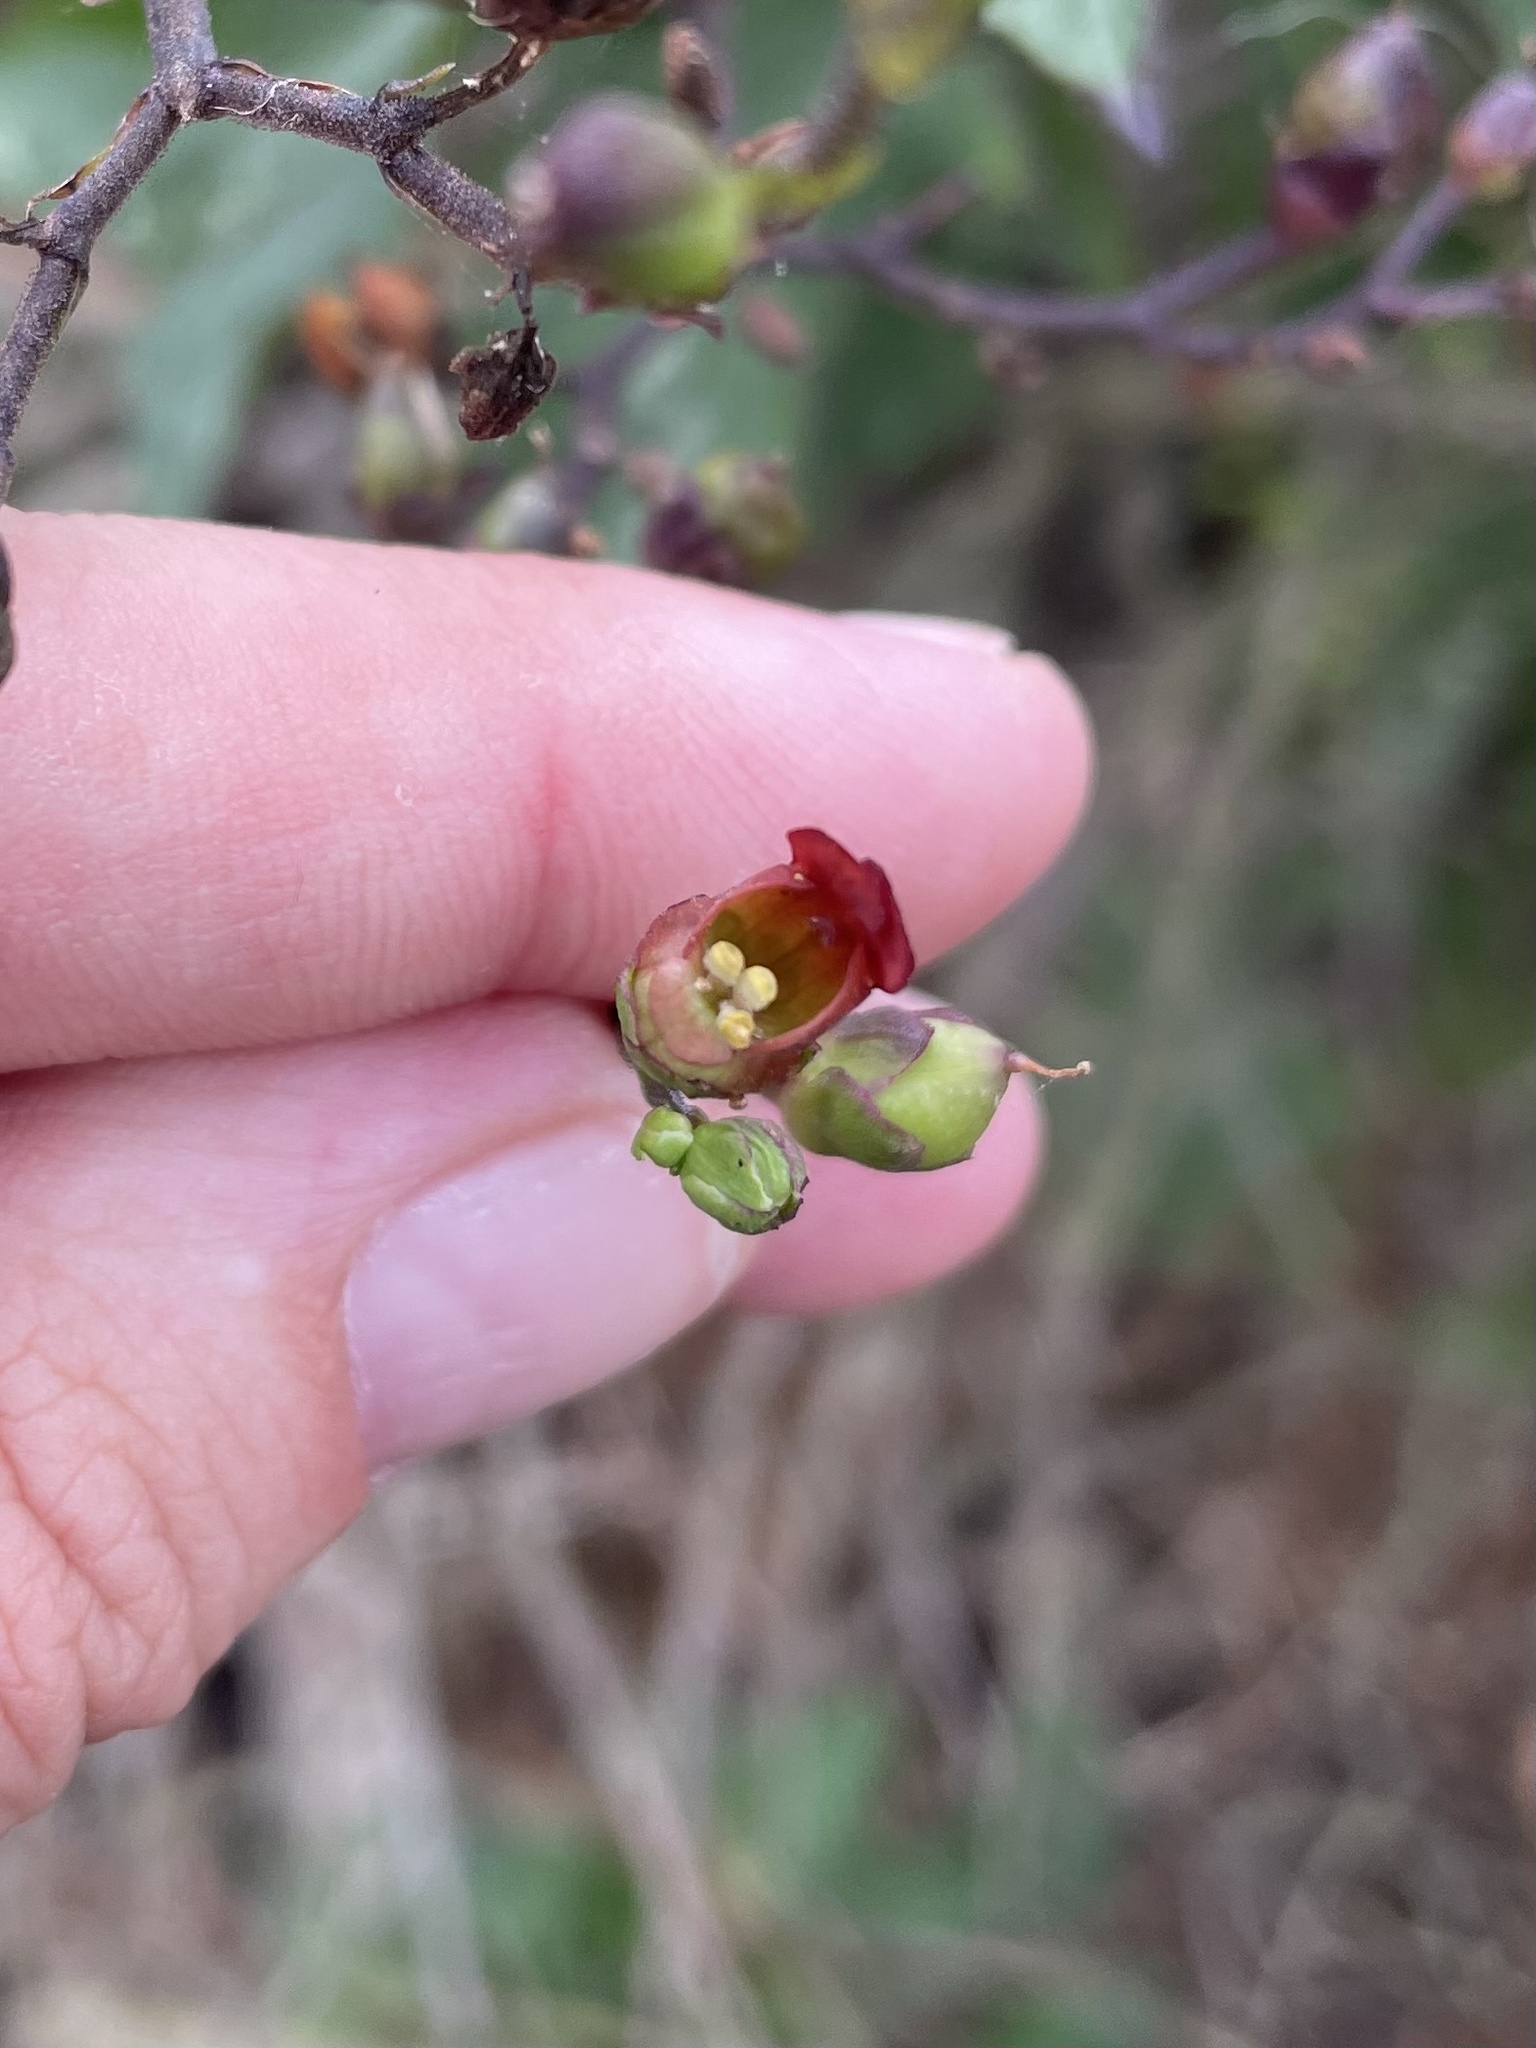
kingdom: Plantae
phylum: Tracheophyta
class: Magnoliopsida
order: Lamiales
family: Scrophulariaceae
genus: Scrophularia
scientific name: Scrophularia californica
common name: California figwort
